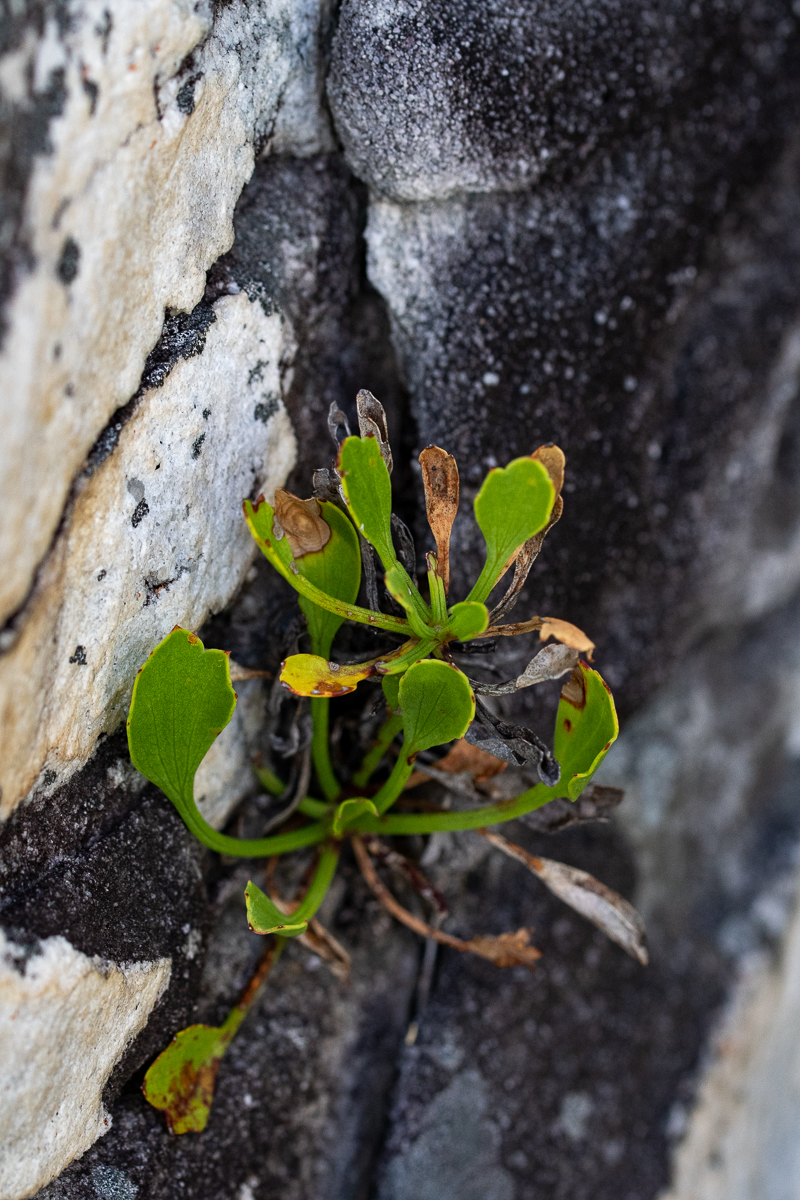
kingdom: Plantae
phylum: Tracheophyta
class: Magnoliopsida
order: Apiales
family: Apiaceae
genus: Centella
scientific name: Centella triloba
